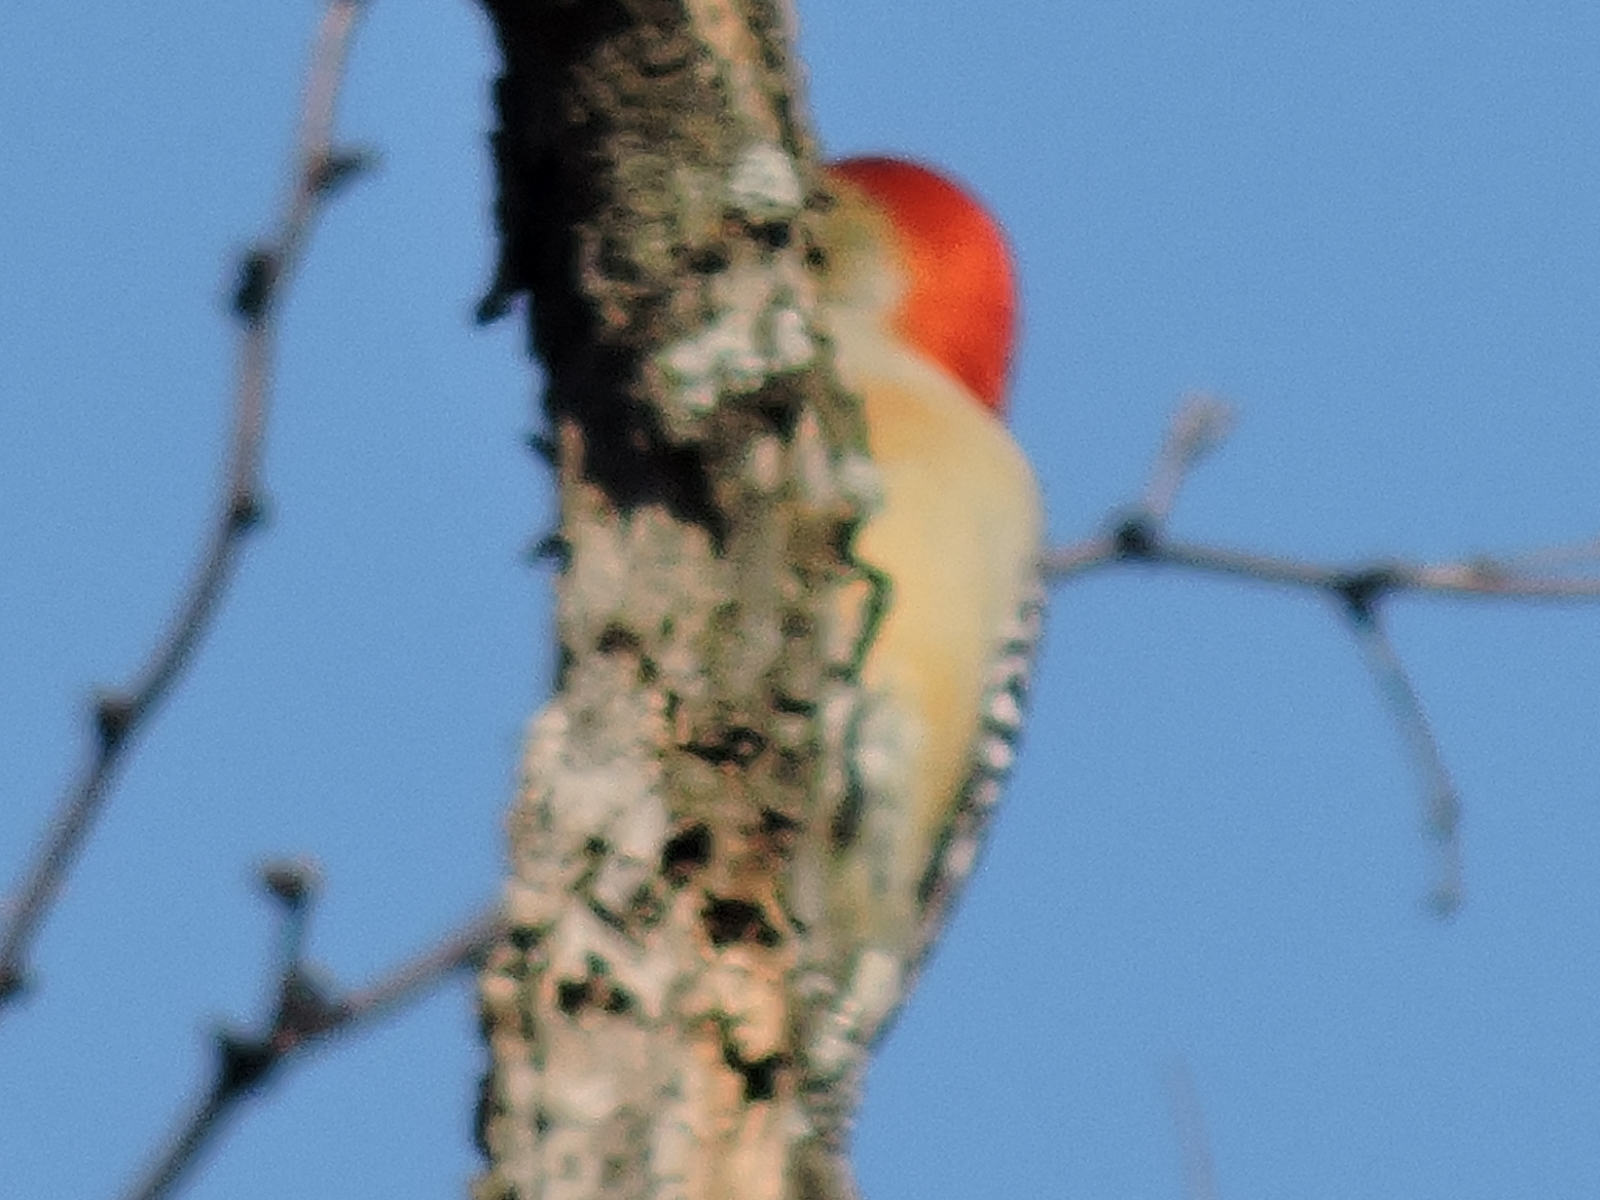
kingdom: Animalia
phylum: Chordata
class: Aves
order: Piciformes
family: Picidae
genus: Melanerpes
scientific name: Melanerpes carolinus
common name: Red-bellied woodpecker
